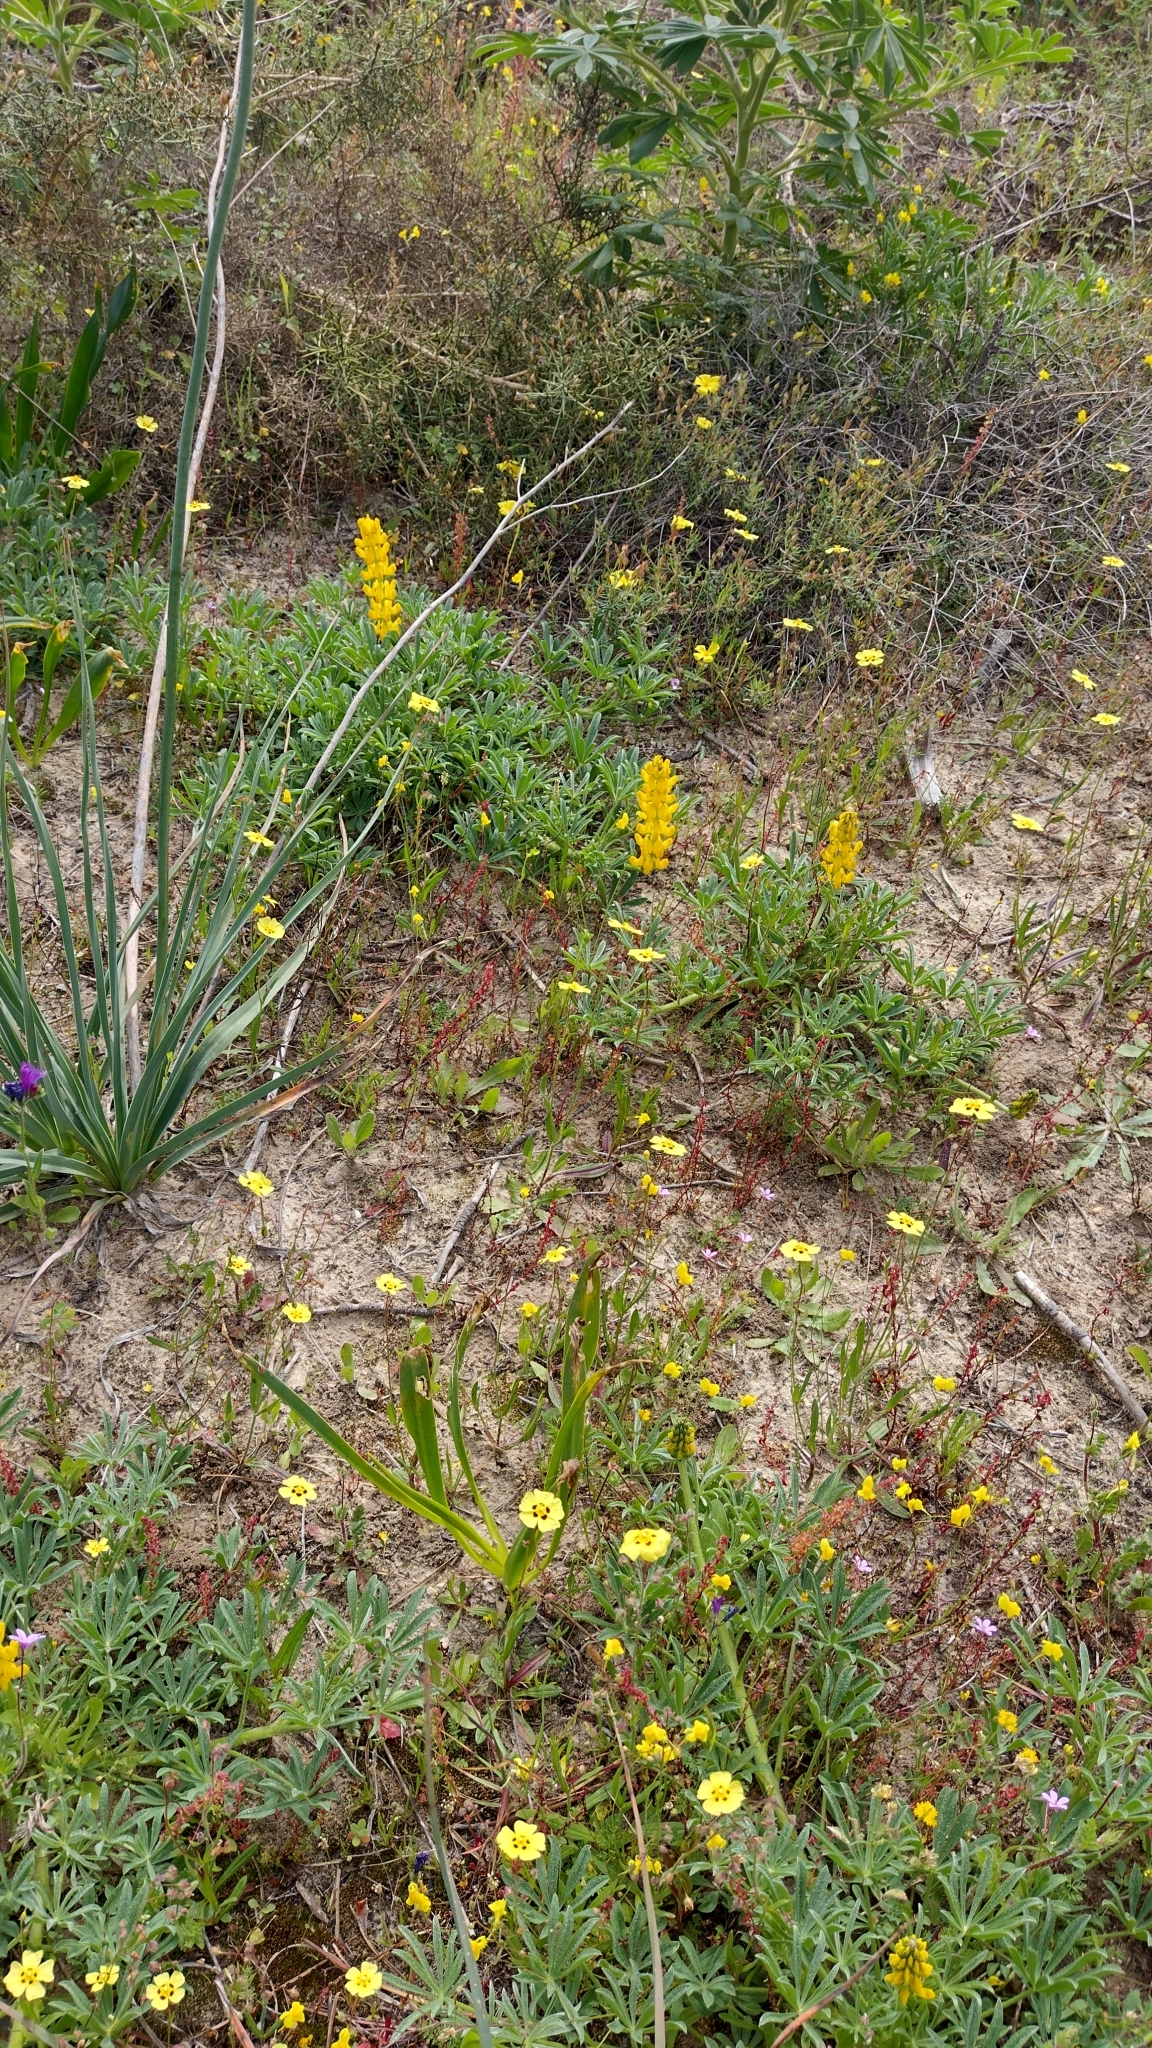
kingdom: Plantae
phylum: Tracheophyta
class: Magnoliopsida
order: Fabales
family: Fabaceae
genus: Lupinus
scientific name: Lupinus luteus
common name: European yellow lupine
